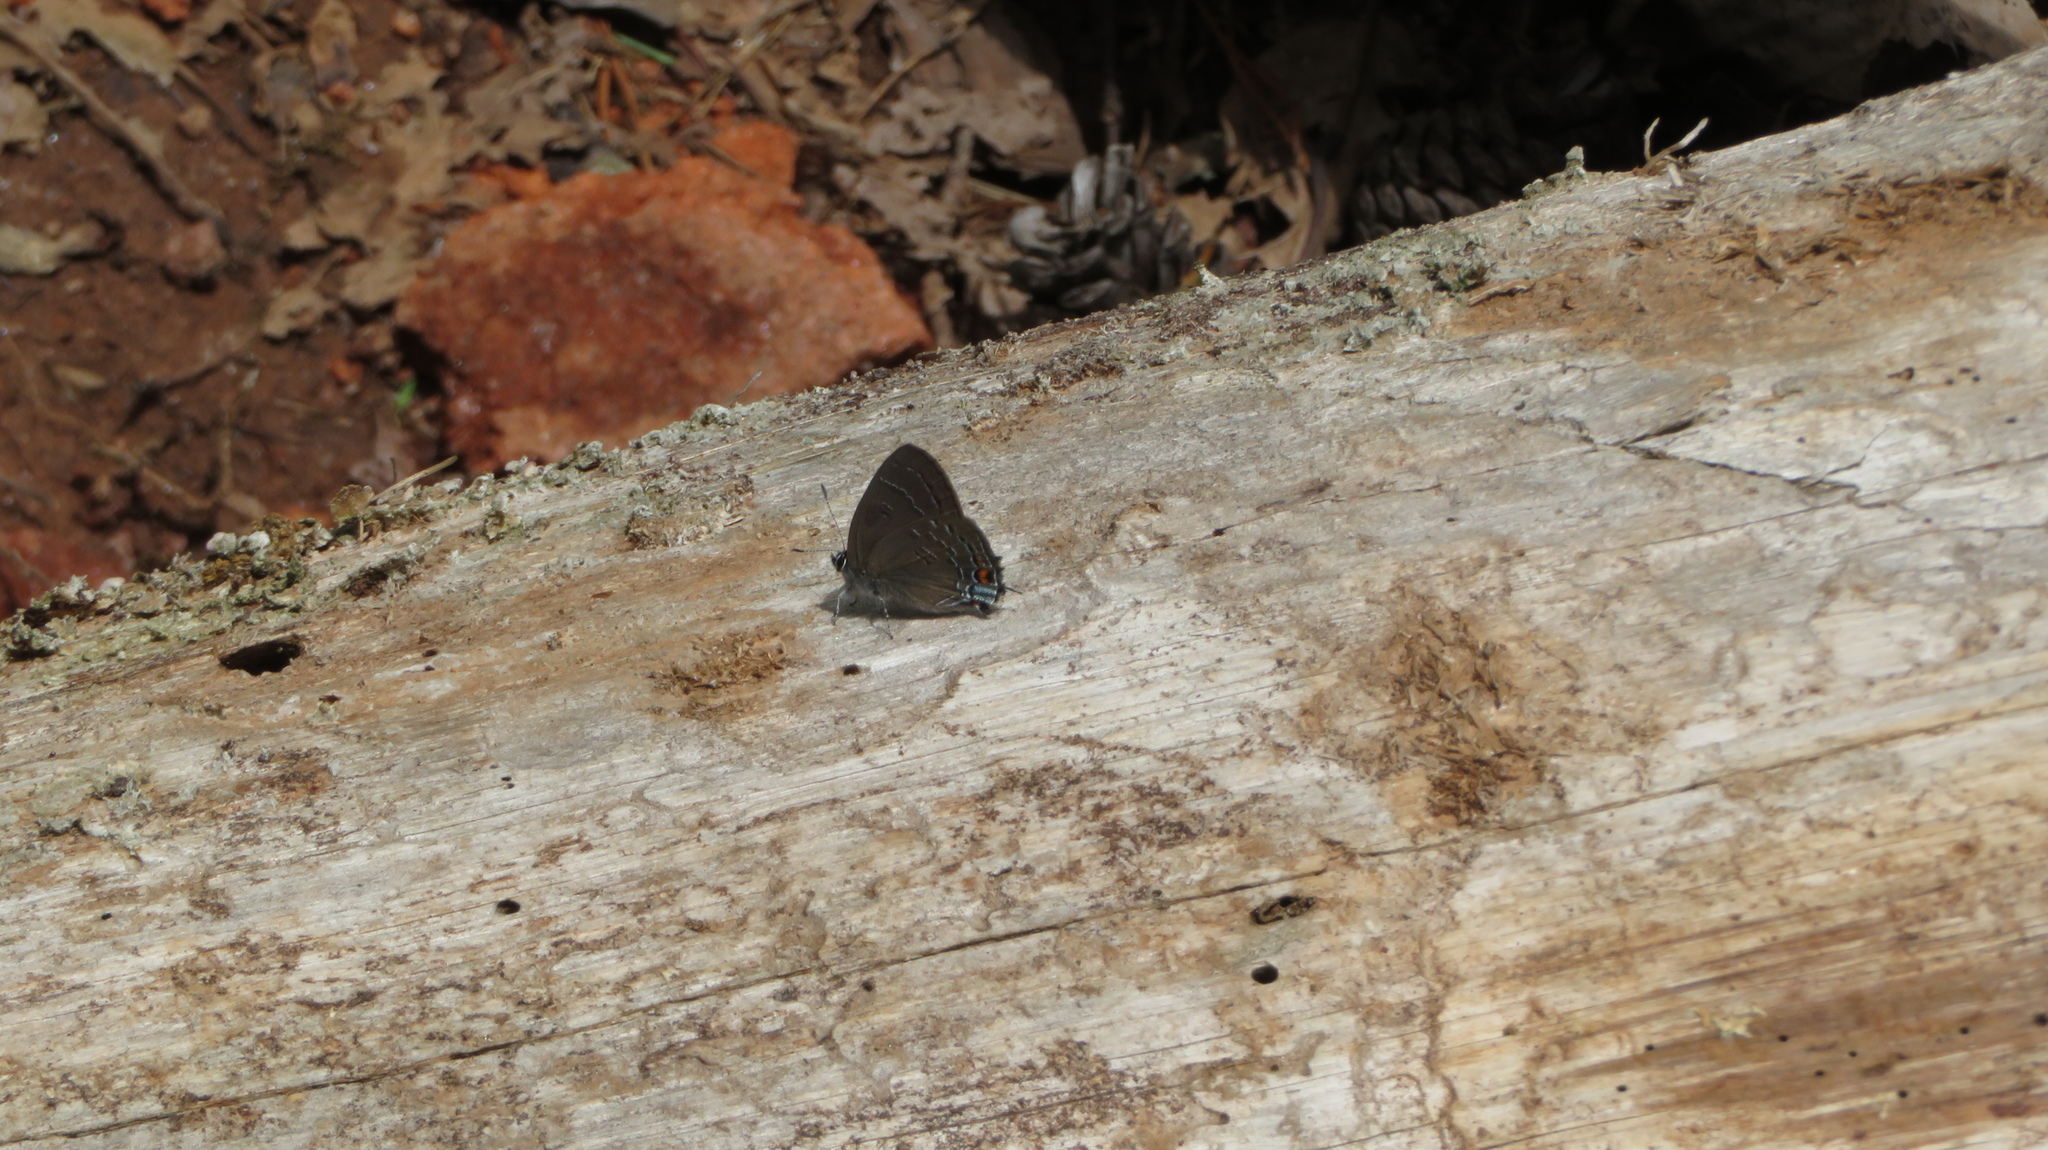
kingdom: Animalia
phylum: Arthropoda
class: Insecta
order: Lepidoptera
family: Lycaenidae
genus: Satyrium
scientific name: Satyrium calanus
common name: Banded hairstreak
